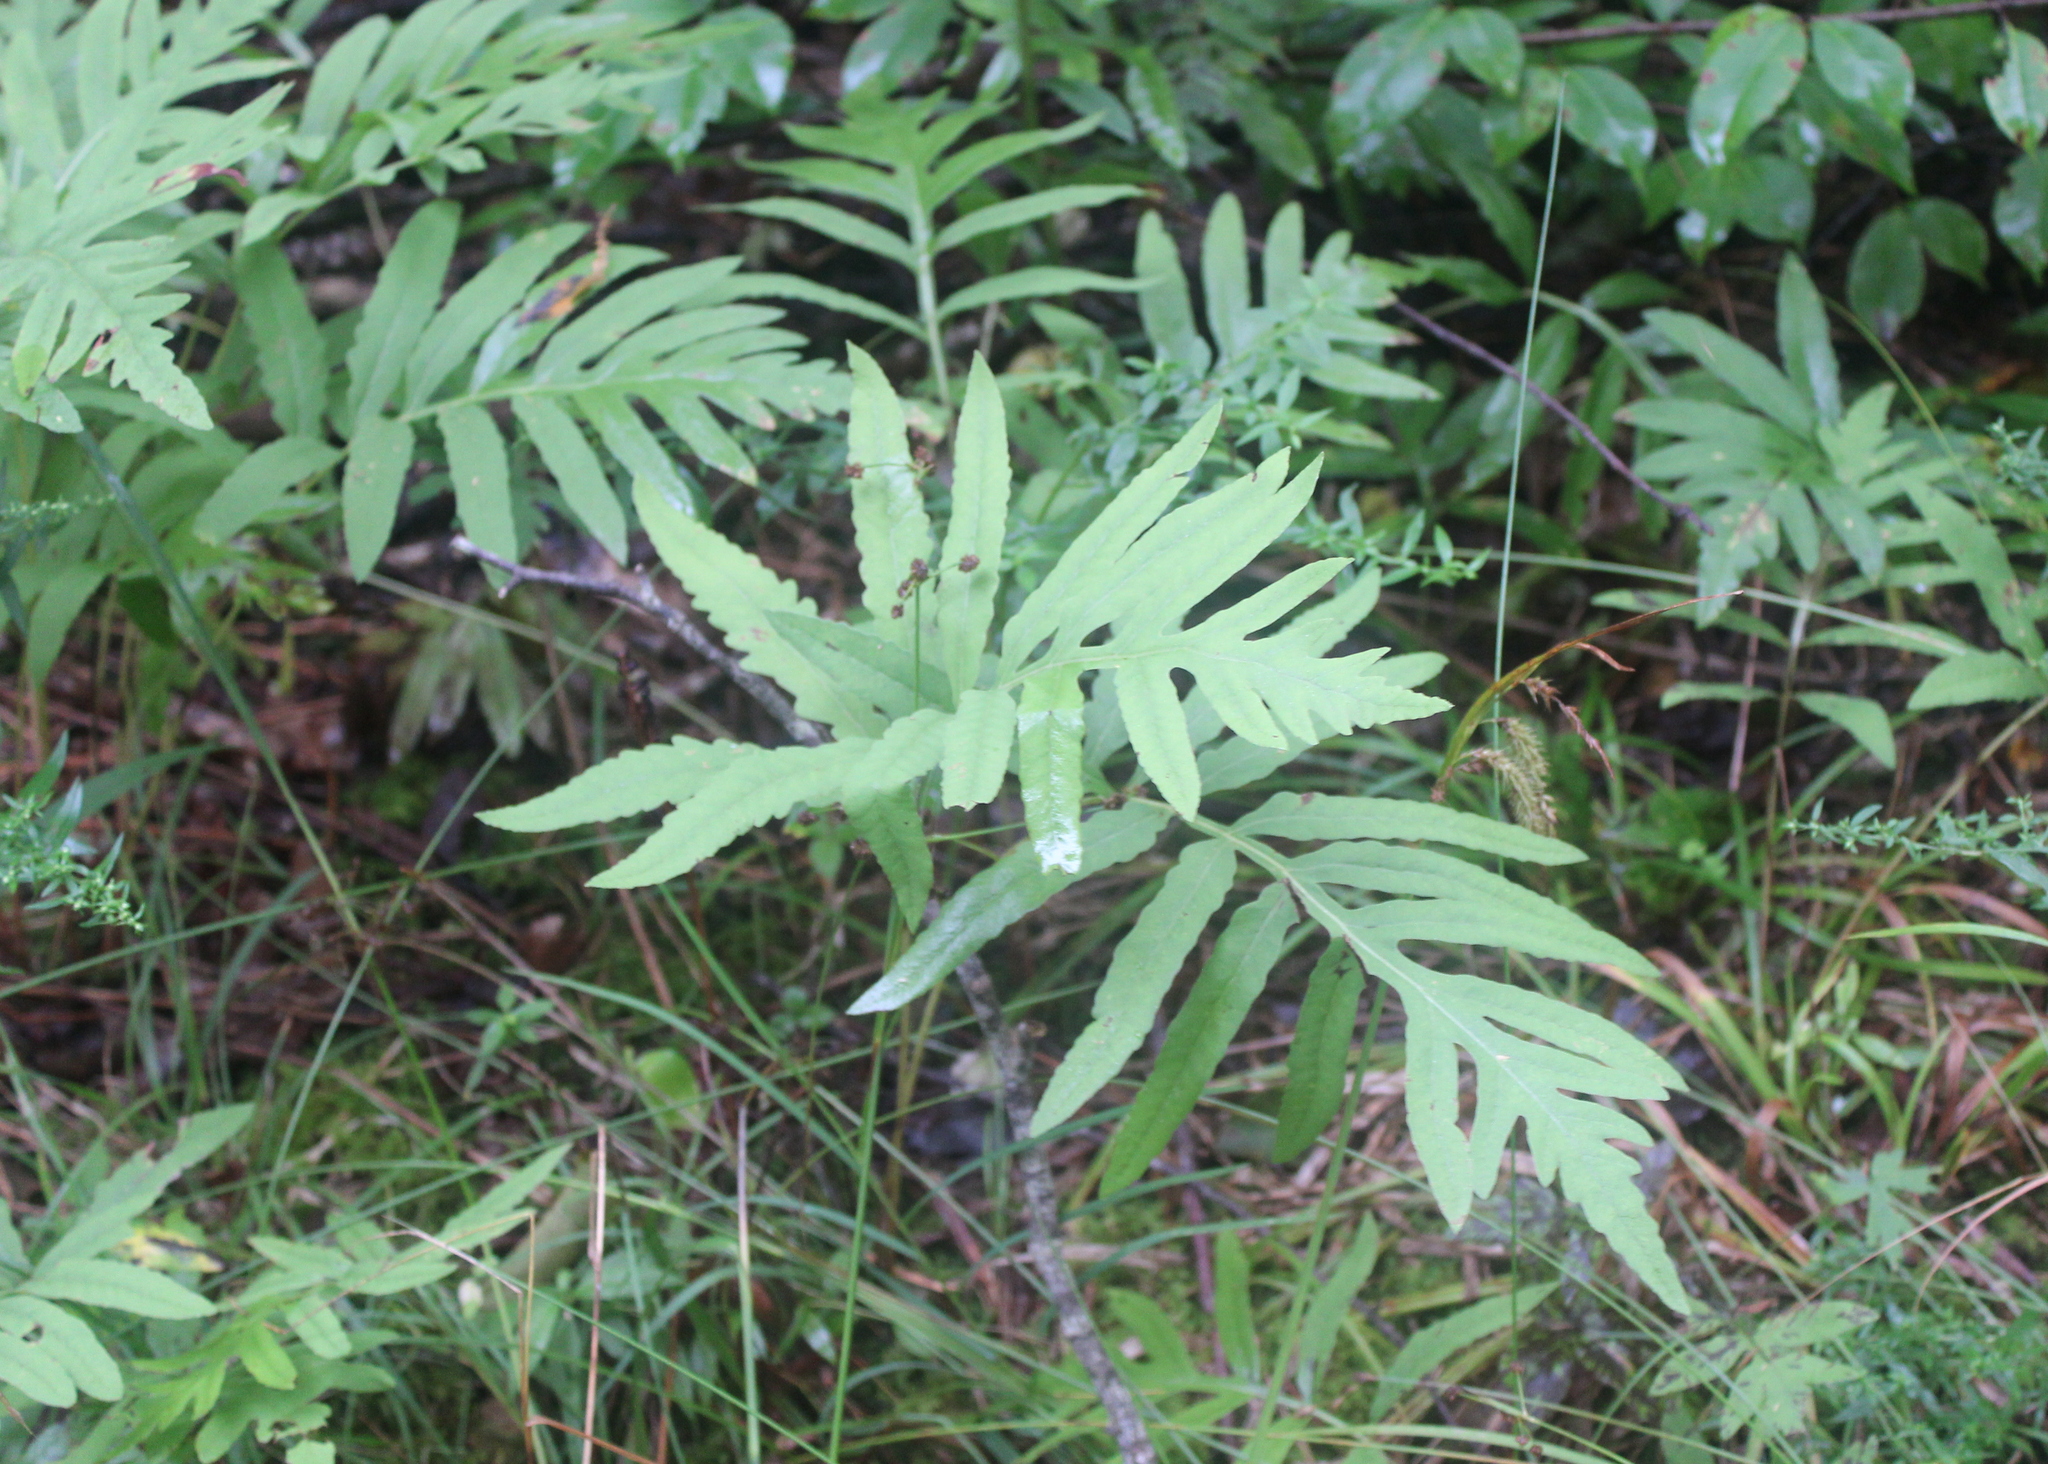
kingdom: Plantae
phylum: Tracheophyta
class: Polypodiopsida
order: Polypodiales
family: Onocleaceae
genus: Onoclea
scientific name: Onoclea sensibilis
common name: Sensitive fern
